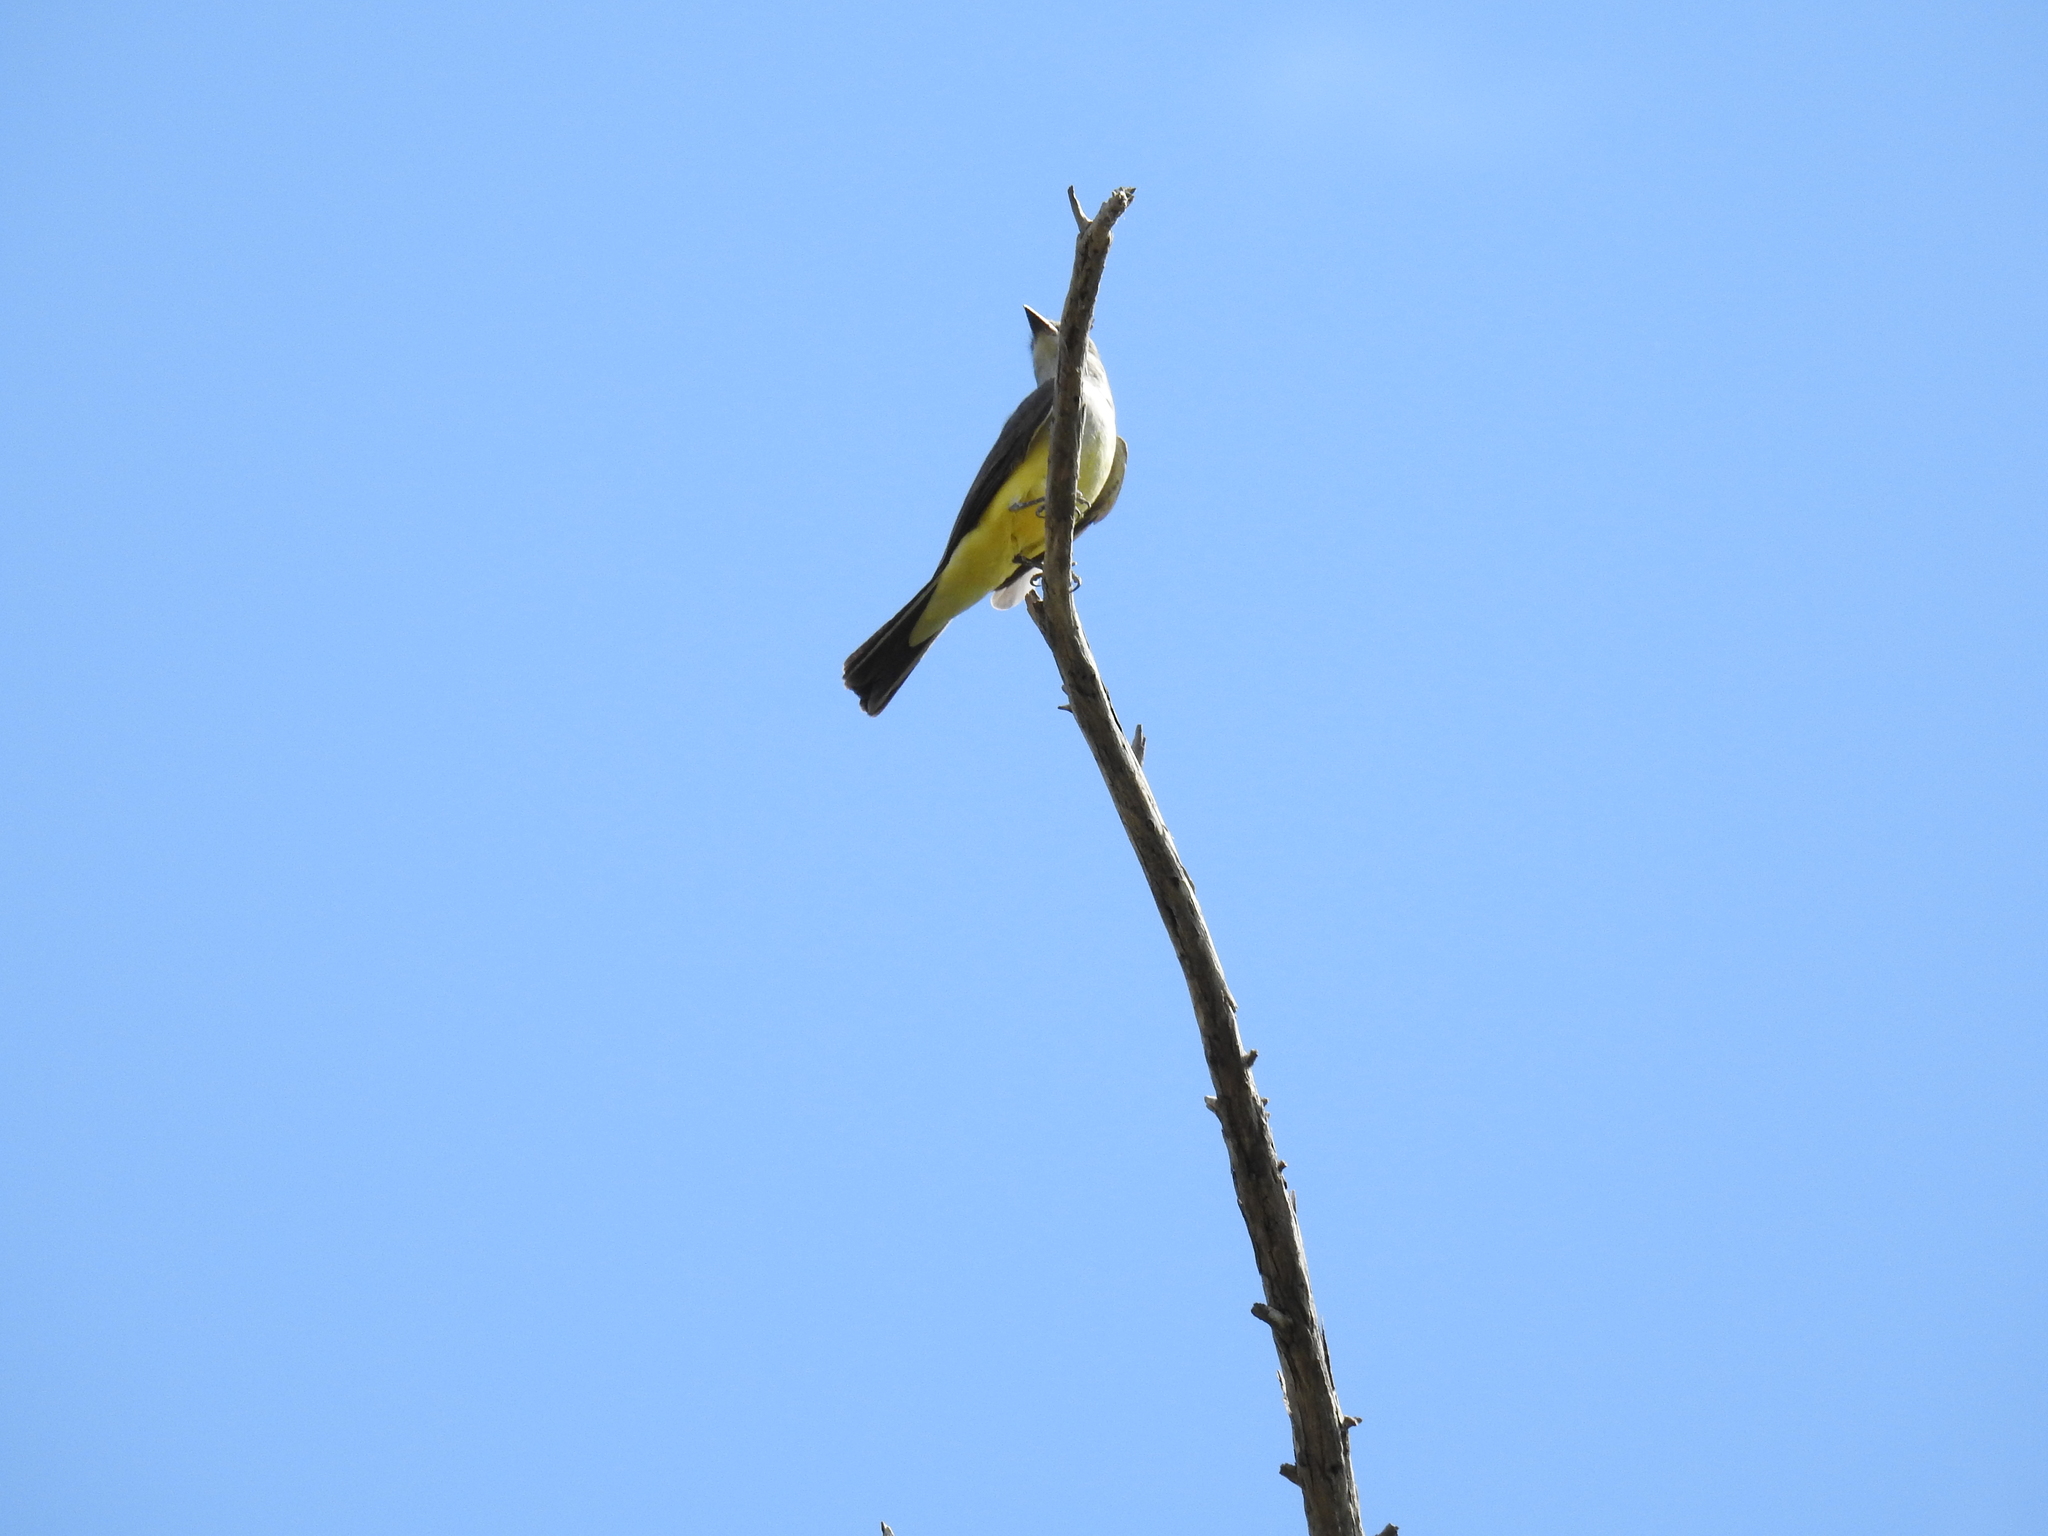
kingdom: Animalia
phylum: Chordata
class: Aves
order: Passeriformes
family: Tyrannidae
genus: Tyrannus
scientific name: Tyrannus verticalis
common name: Western kingbird
